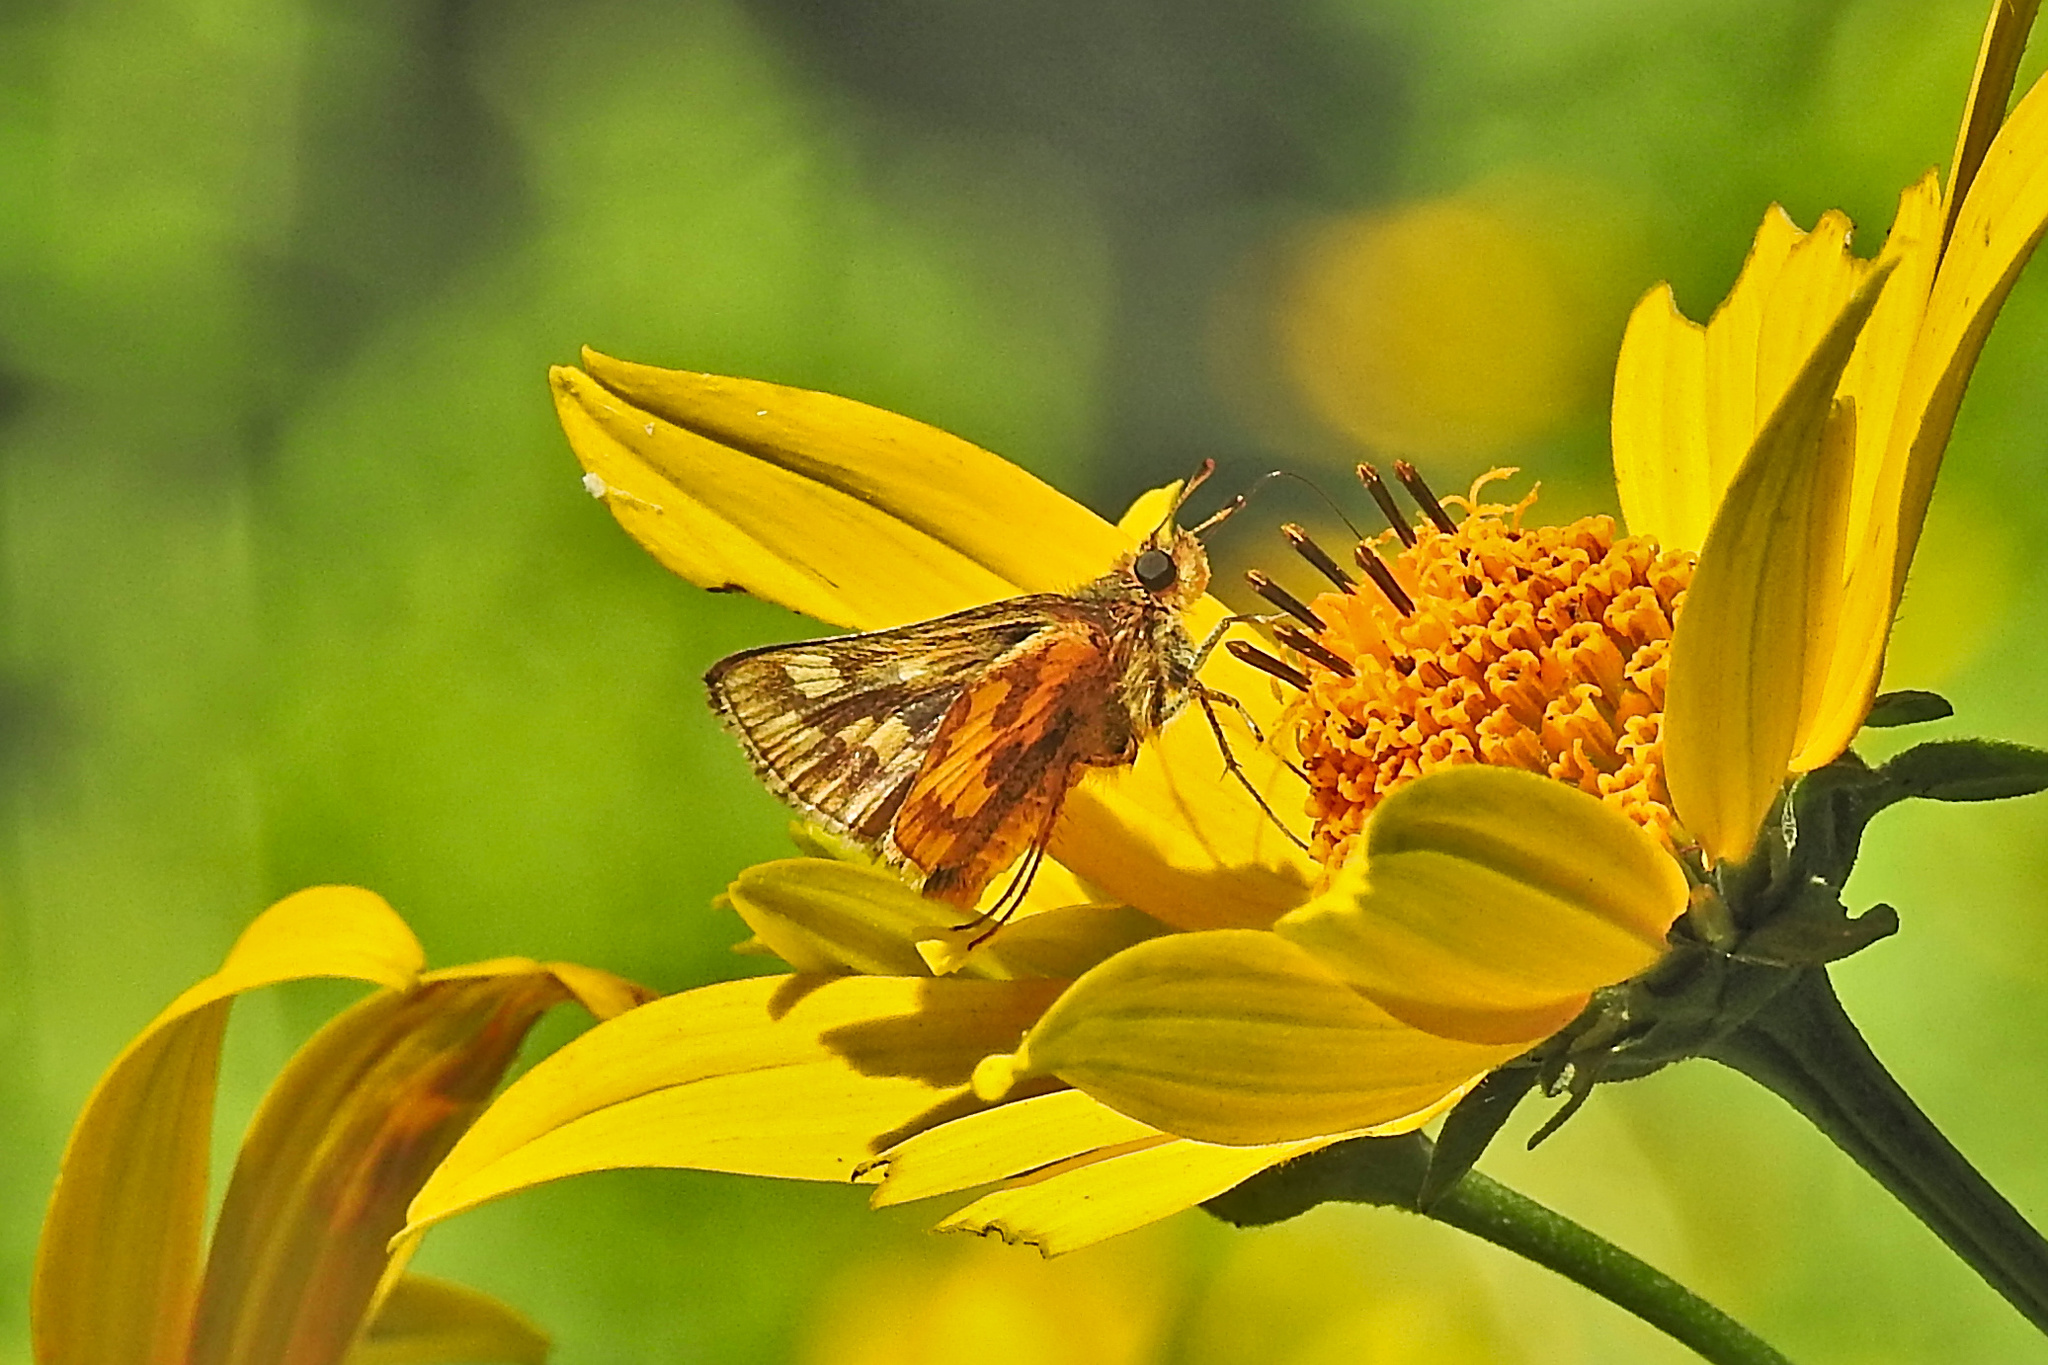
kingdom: Animalia
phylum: Arthropoda
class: Insecta
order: Lepidoptera
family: Hesperiidae
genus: Polites
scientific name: Polites coras
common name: Peck's skipper
